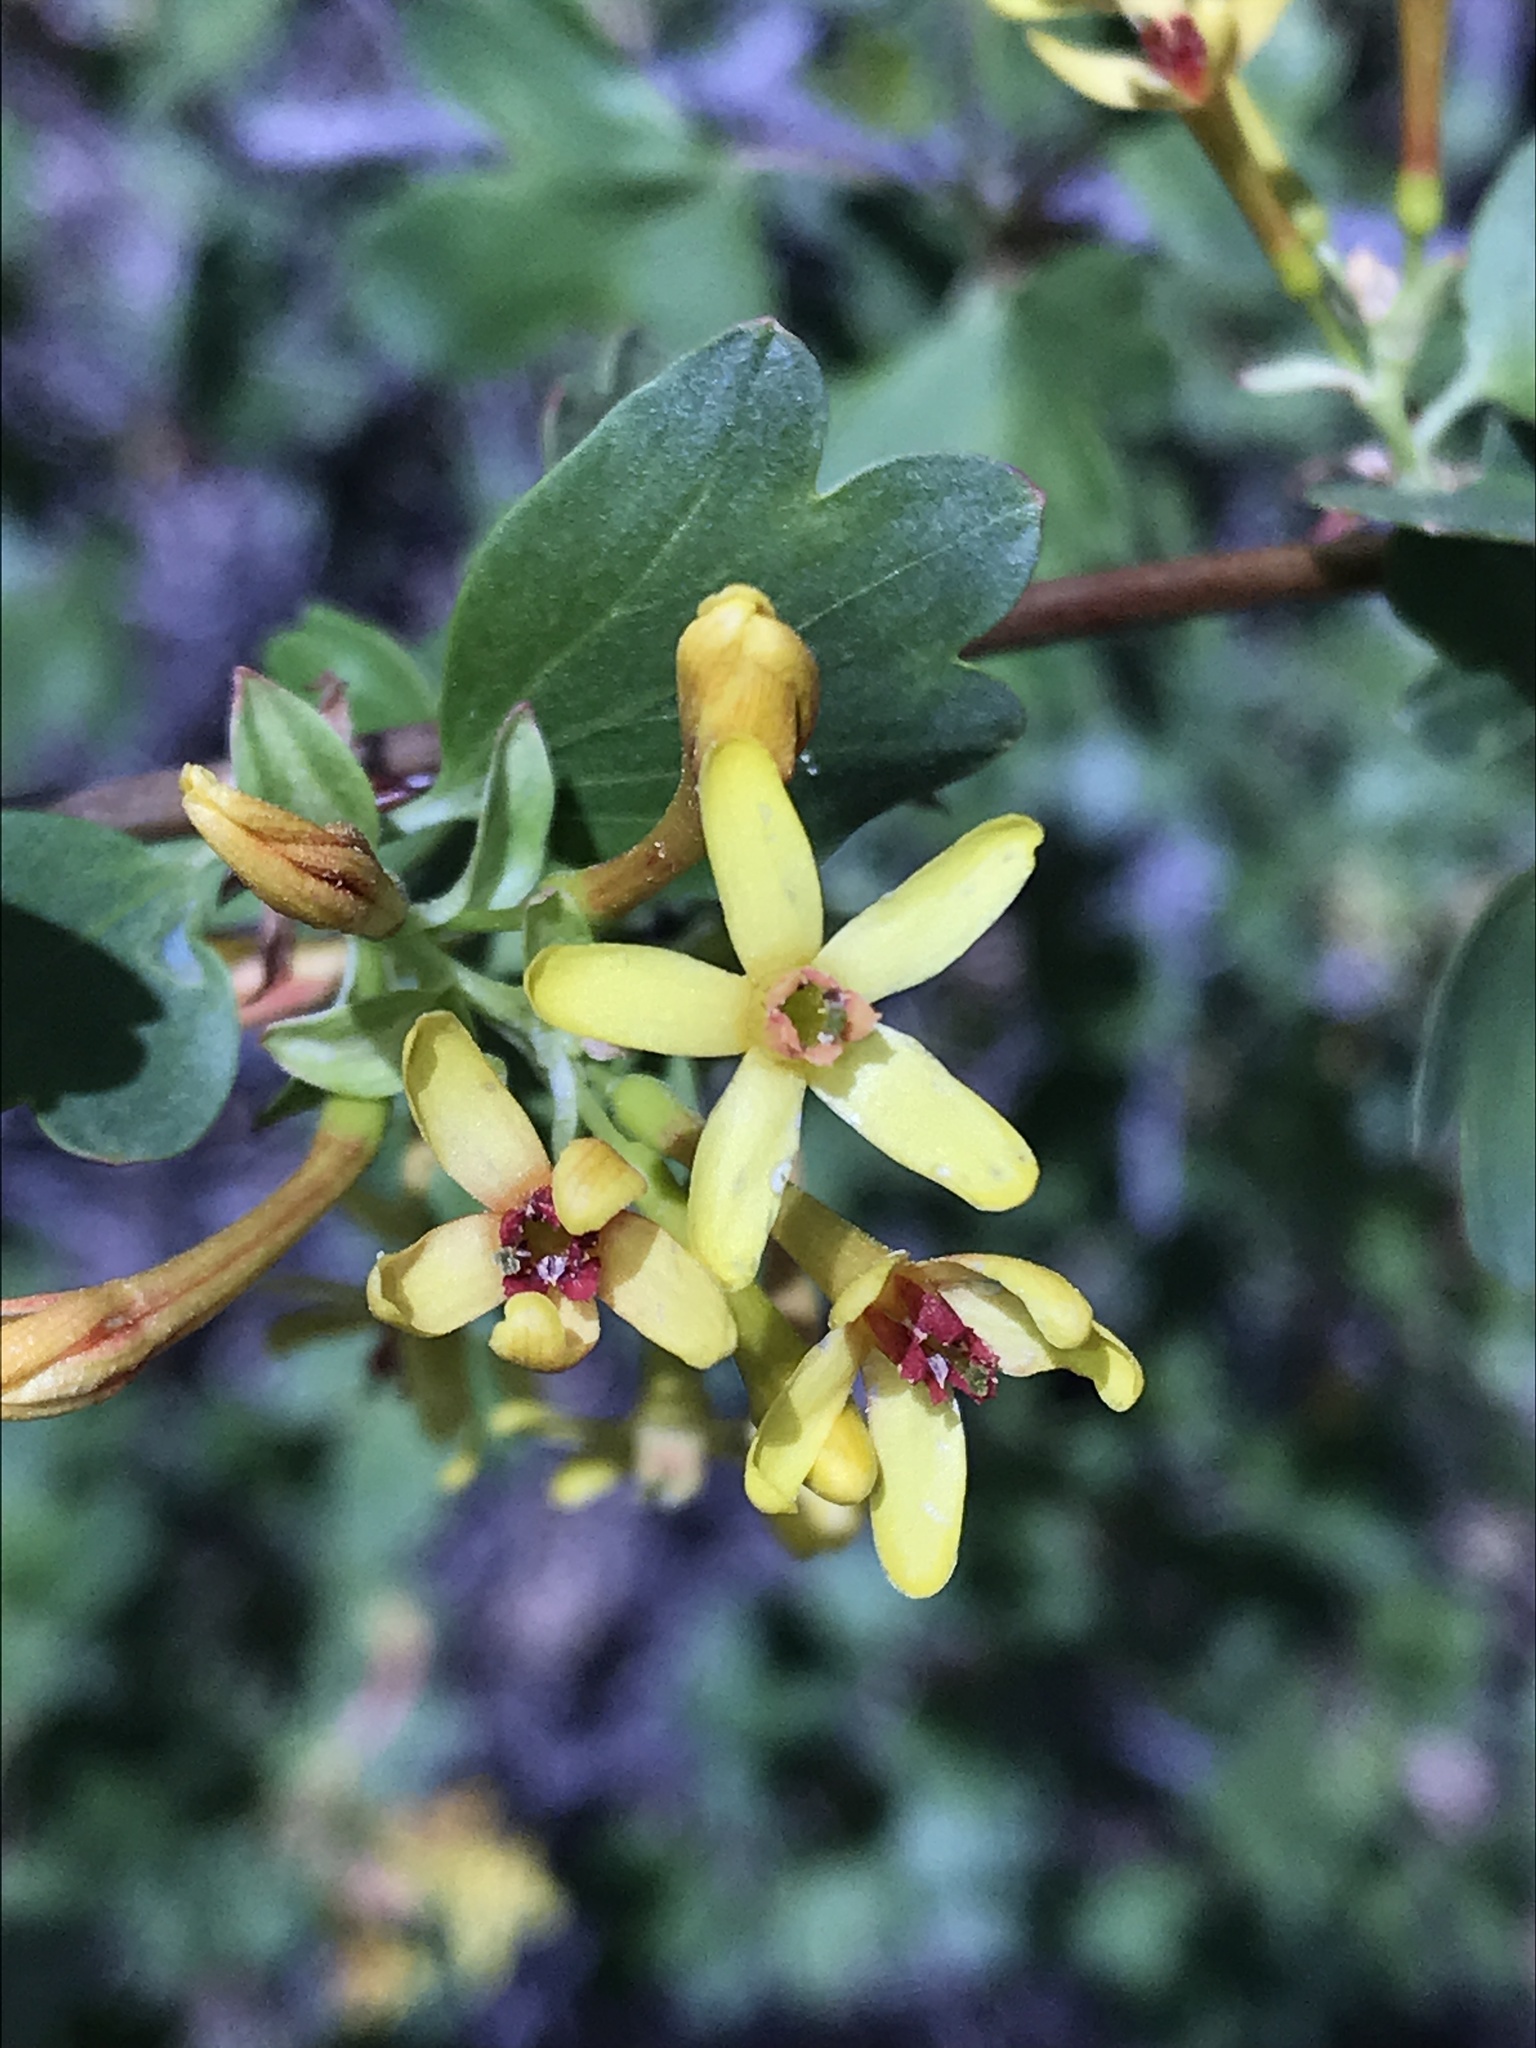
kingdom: Plantae
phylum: Tracheophyta
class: Magnoliopsida
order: Saxifragales
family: Grossulariaceae
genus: Ribes
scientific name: Ribes aureum
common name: Golden currant
